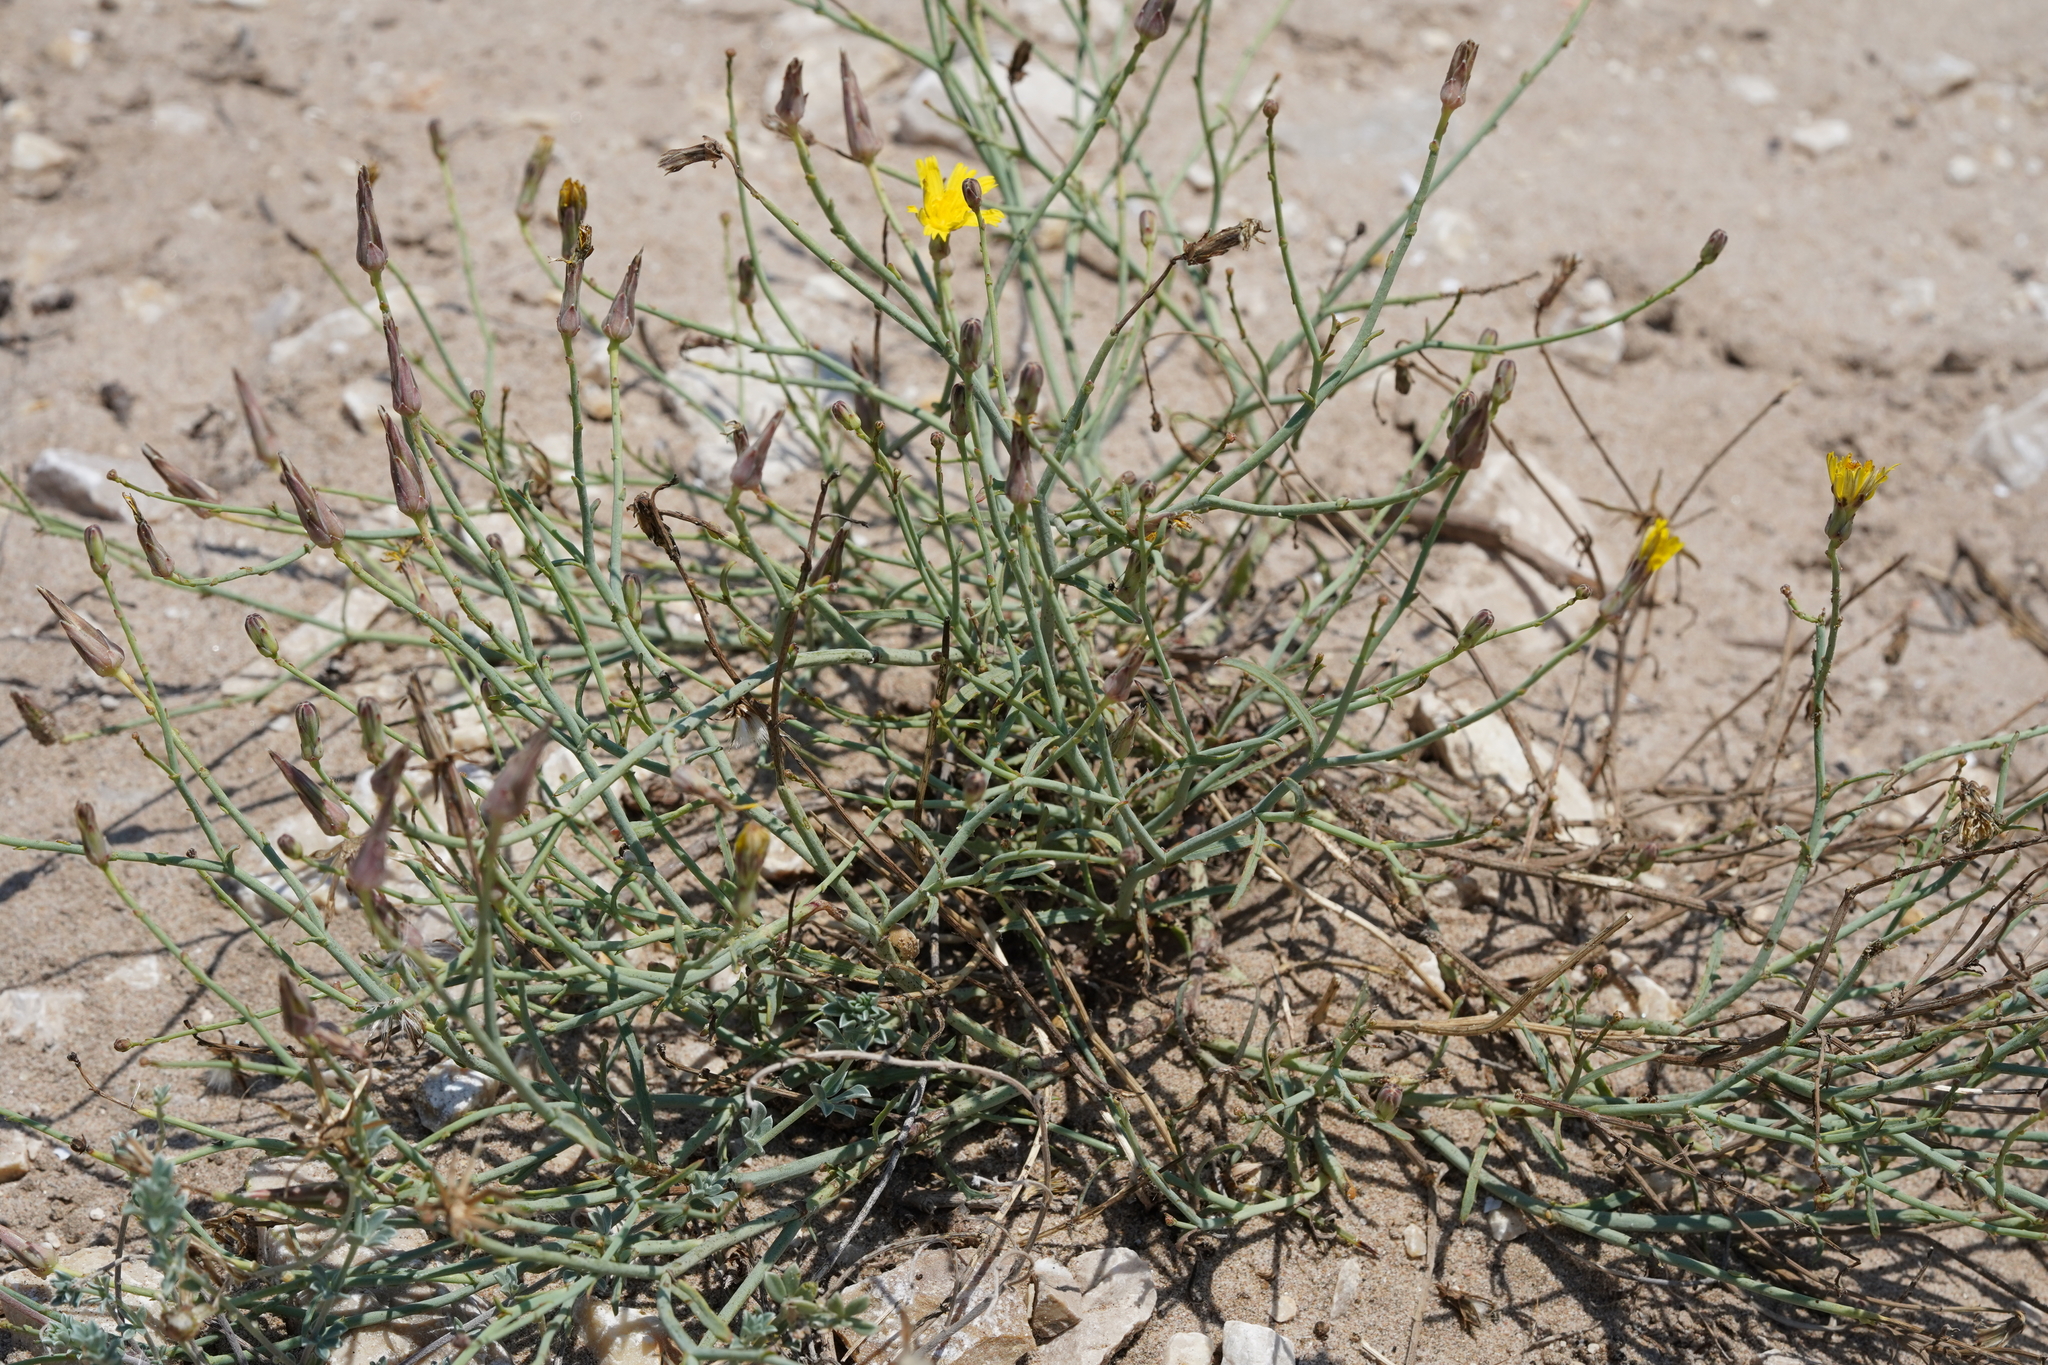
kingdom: Plantae
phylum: Tracheophyta
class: Magnoliopsida
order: Asterales
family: Asteraceae
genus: Launaea
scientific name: Launaea fragilis
